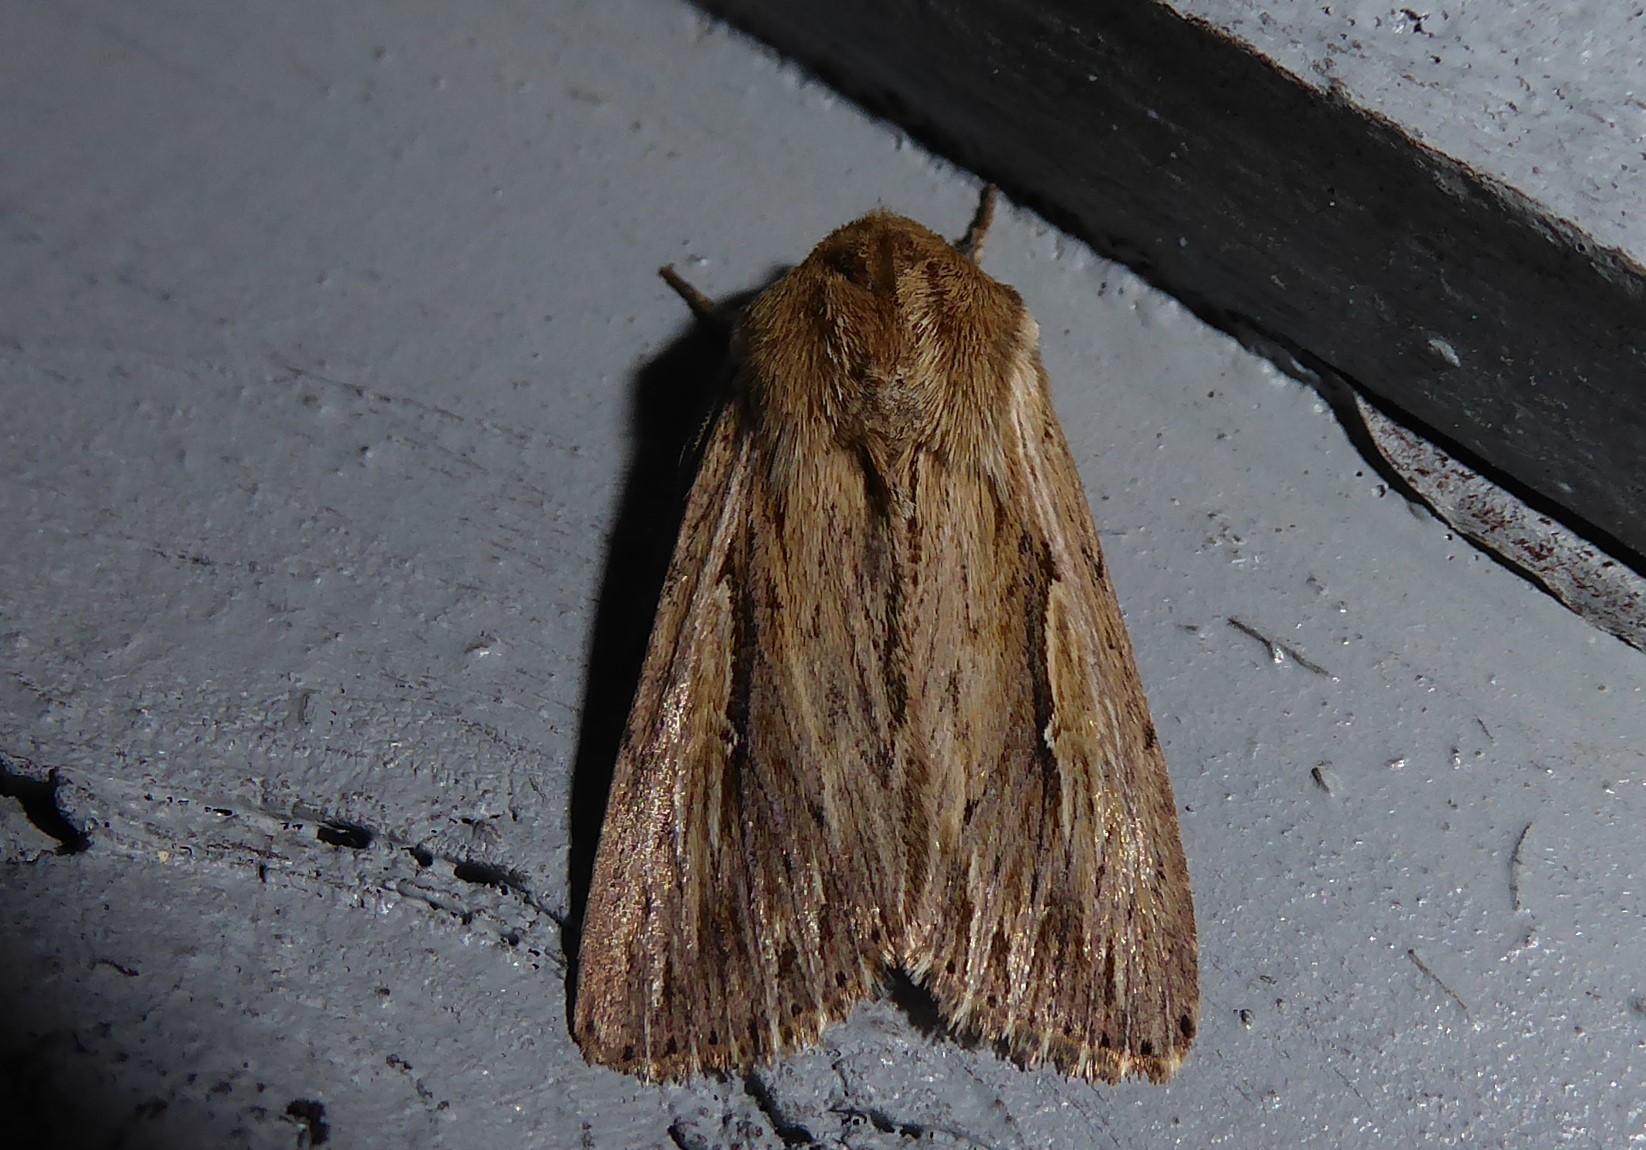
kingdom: Animalia
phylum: Arthropoda
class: Insecta
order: Lepidoptera
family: Noctuidae
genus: Persectania
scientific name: Persectania aversa
